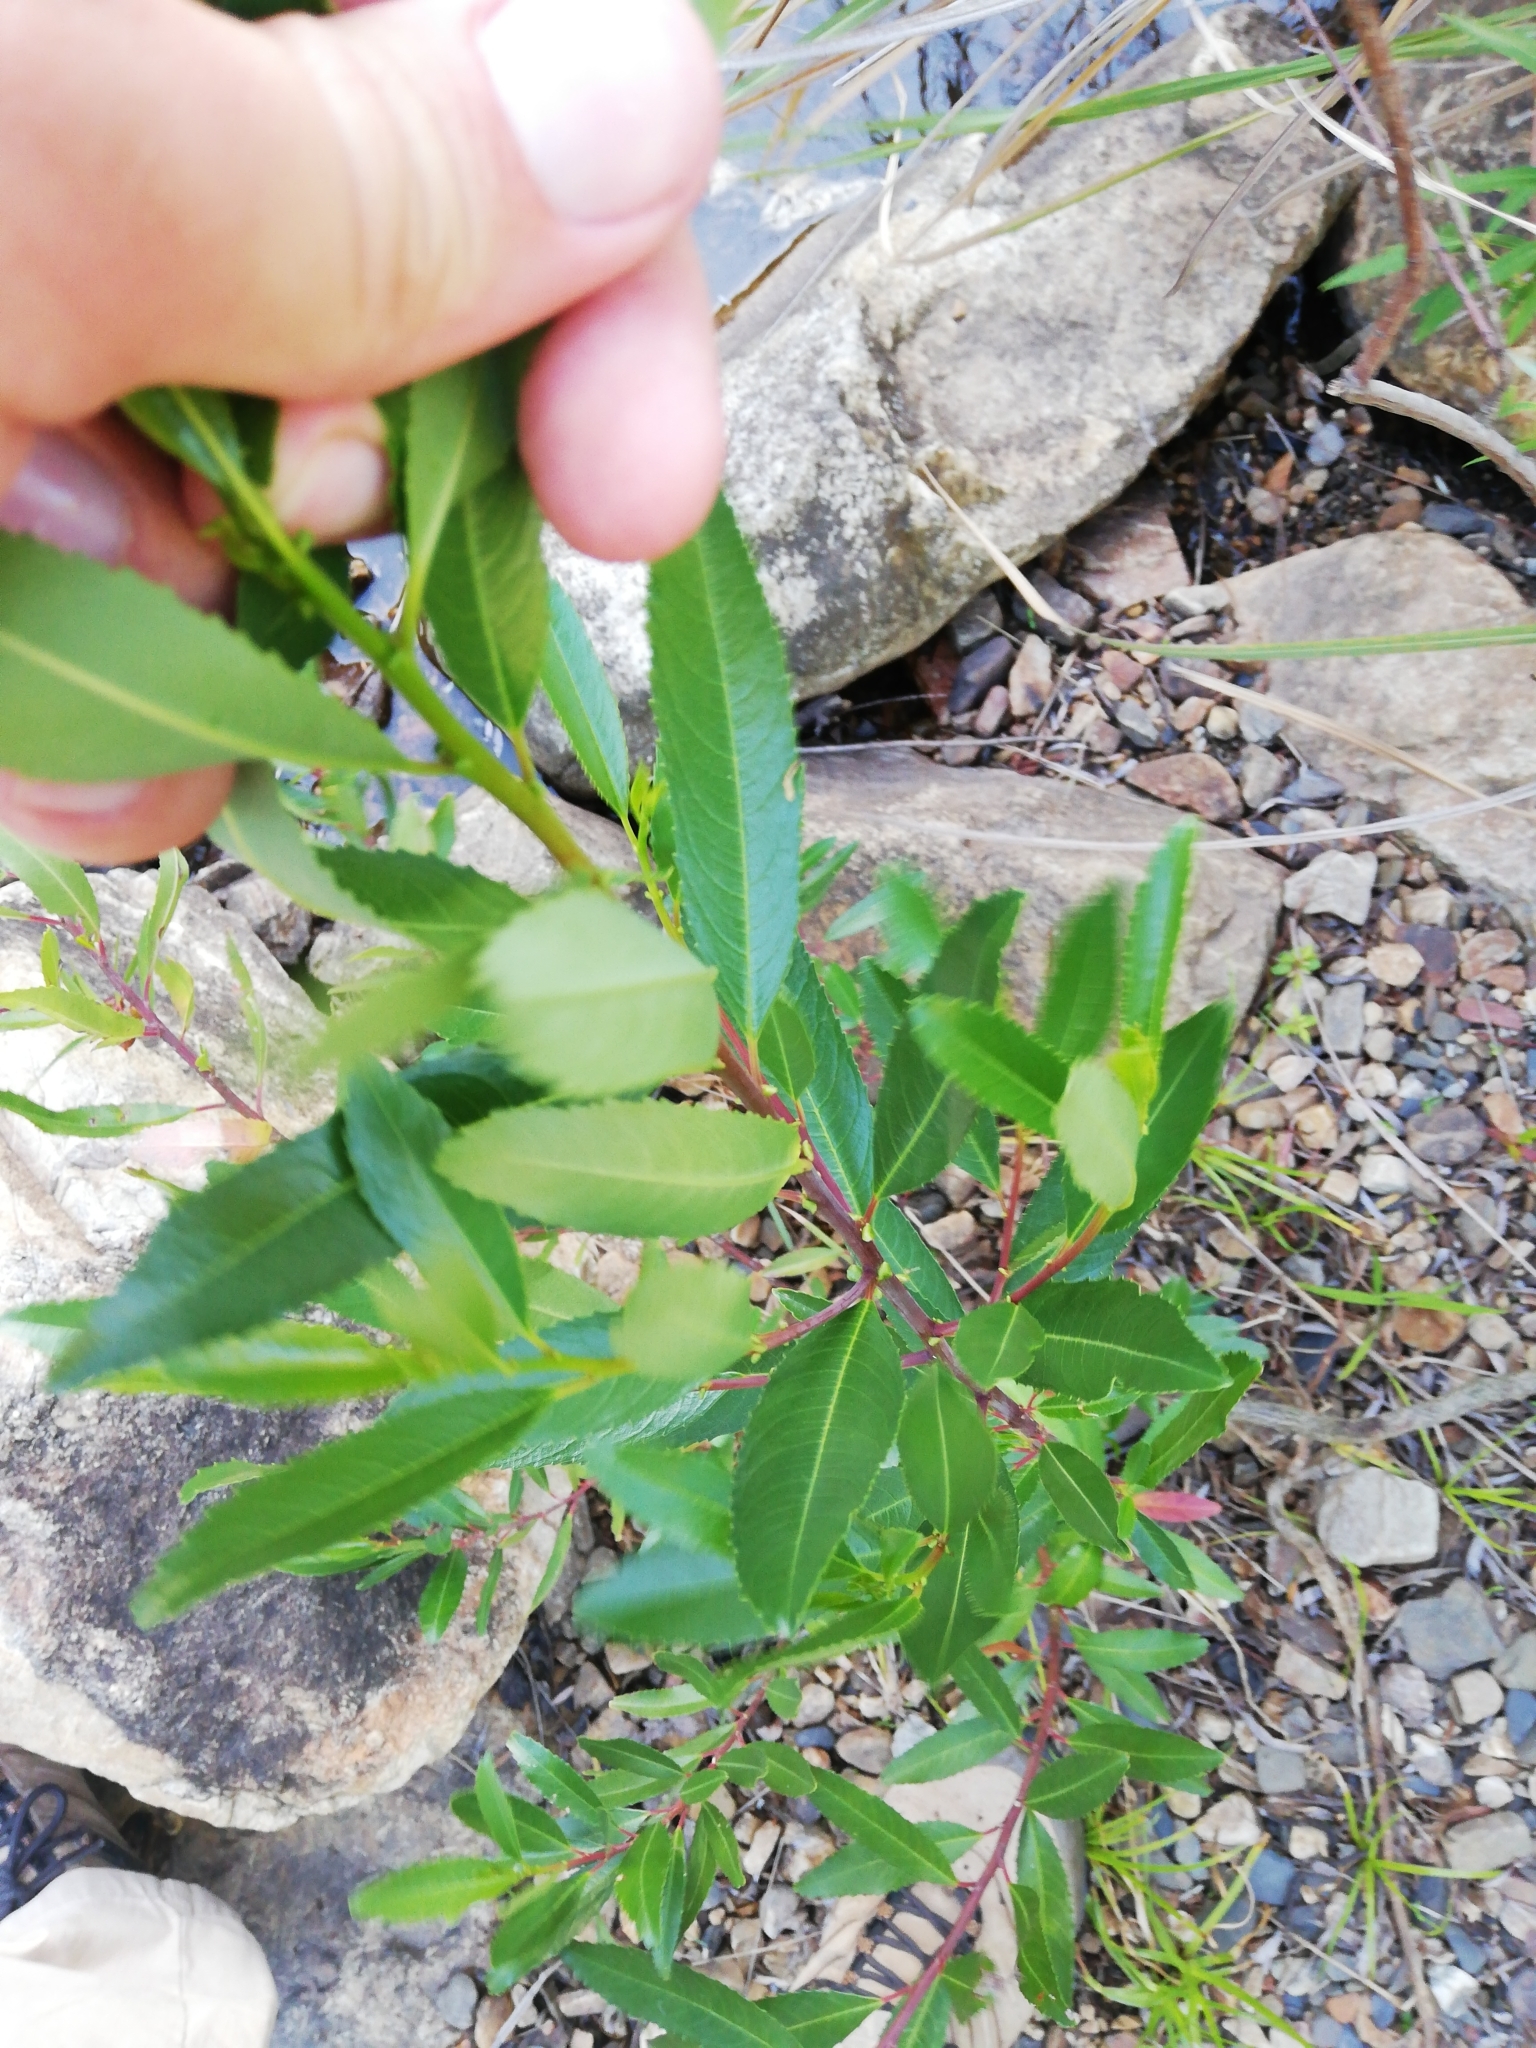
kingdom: Plantae
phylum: Tracheophyta
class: Magnoliopsida
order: Rosales
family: Rhamnaceae
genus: Noltea
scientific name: Noltea africana
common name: Soapbush
